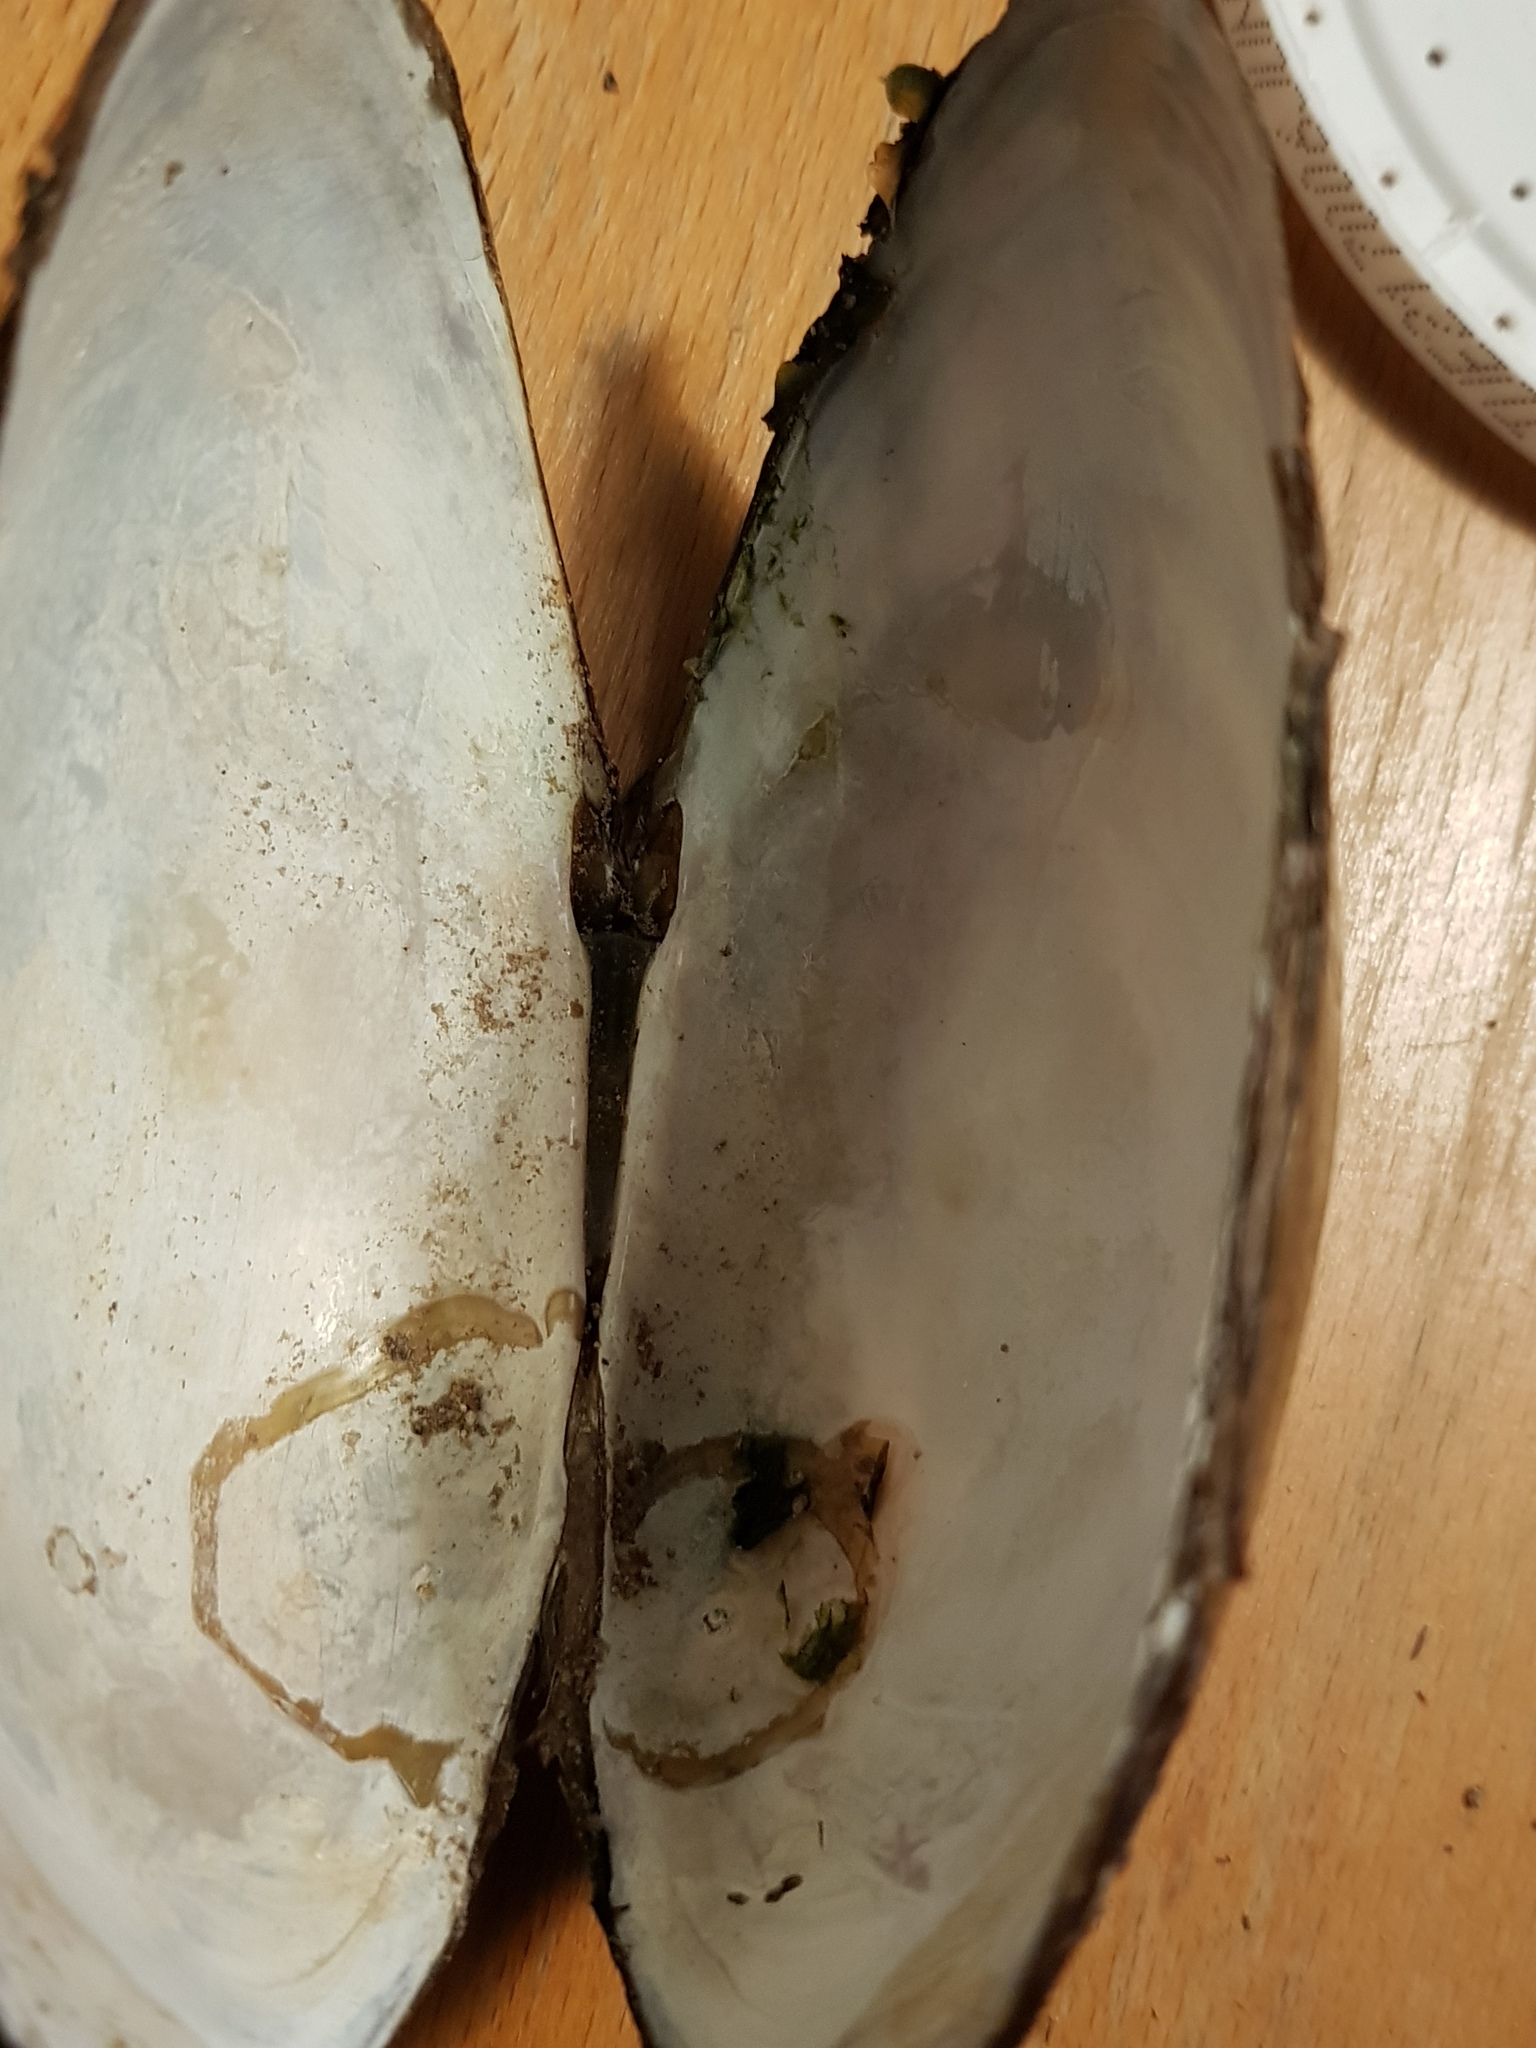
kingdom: Animalia
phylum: Mollusca
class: Bivalvia
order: Unionida
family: Unionidae
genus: Pyganodon
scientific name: Pyganodon cataracta
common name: Eastern floater
